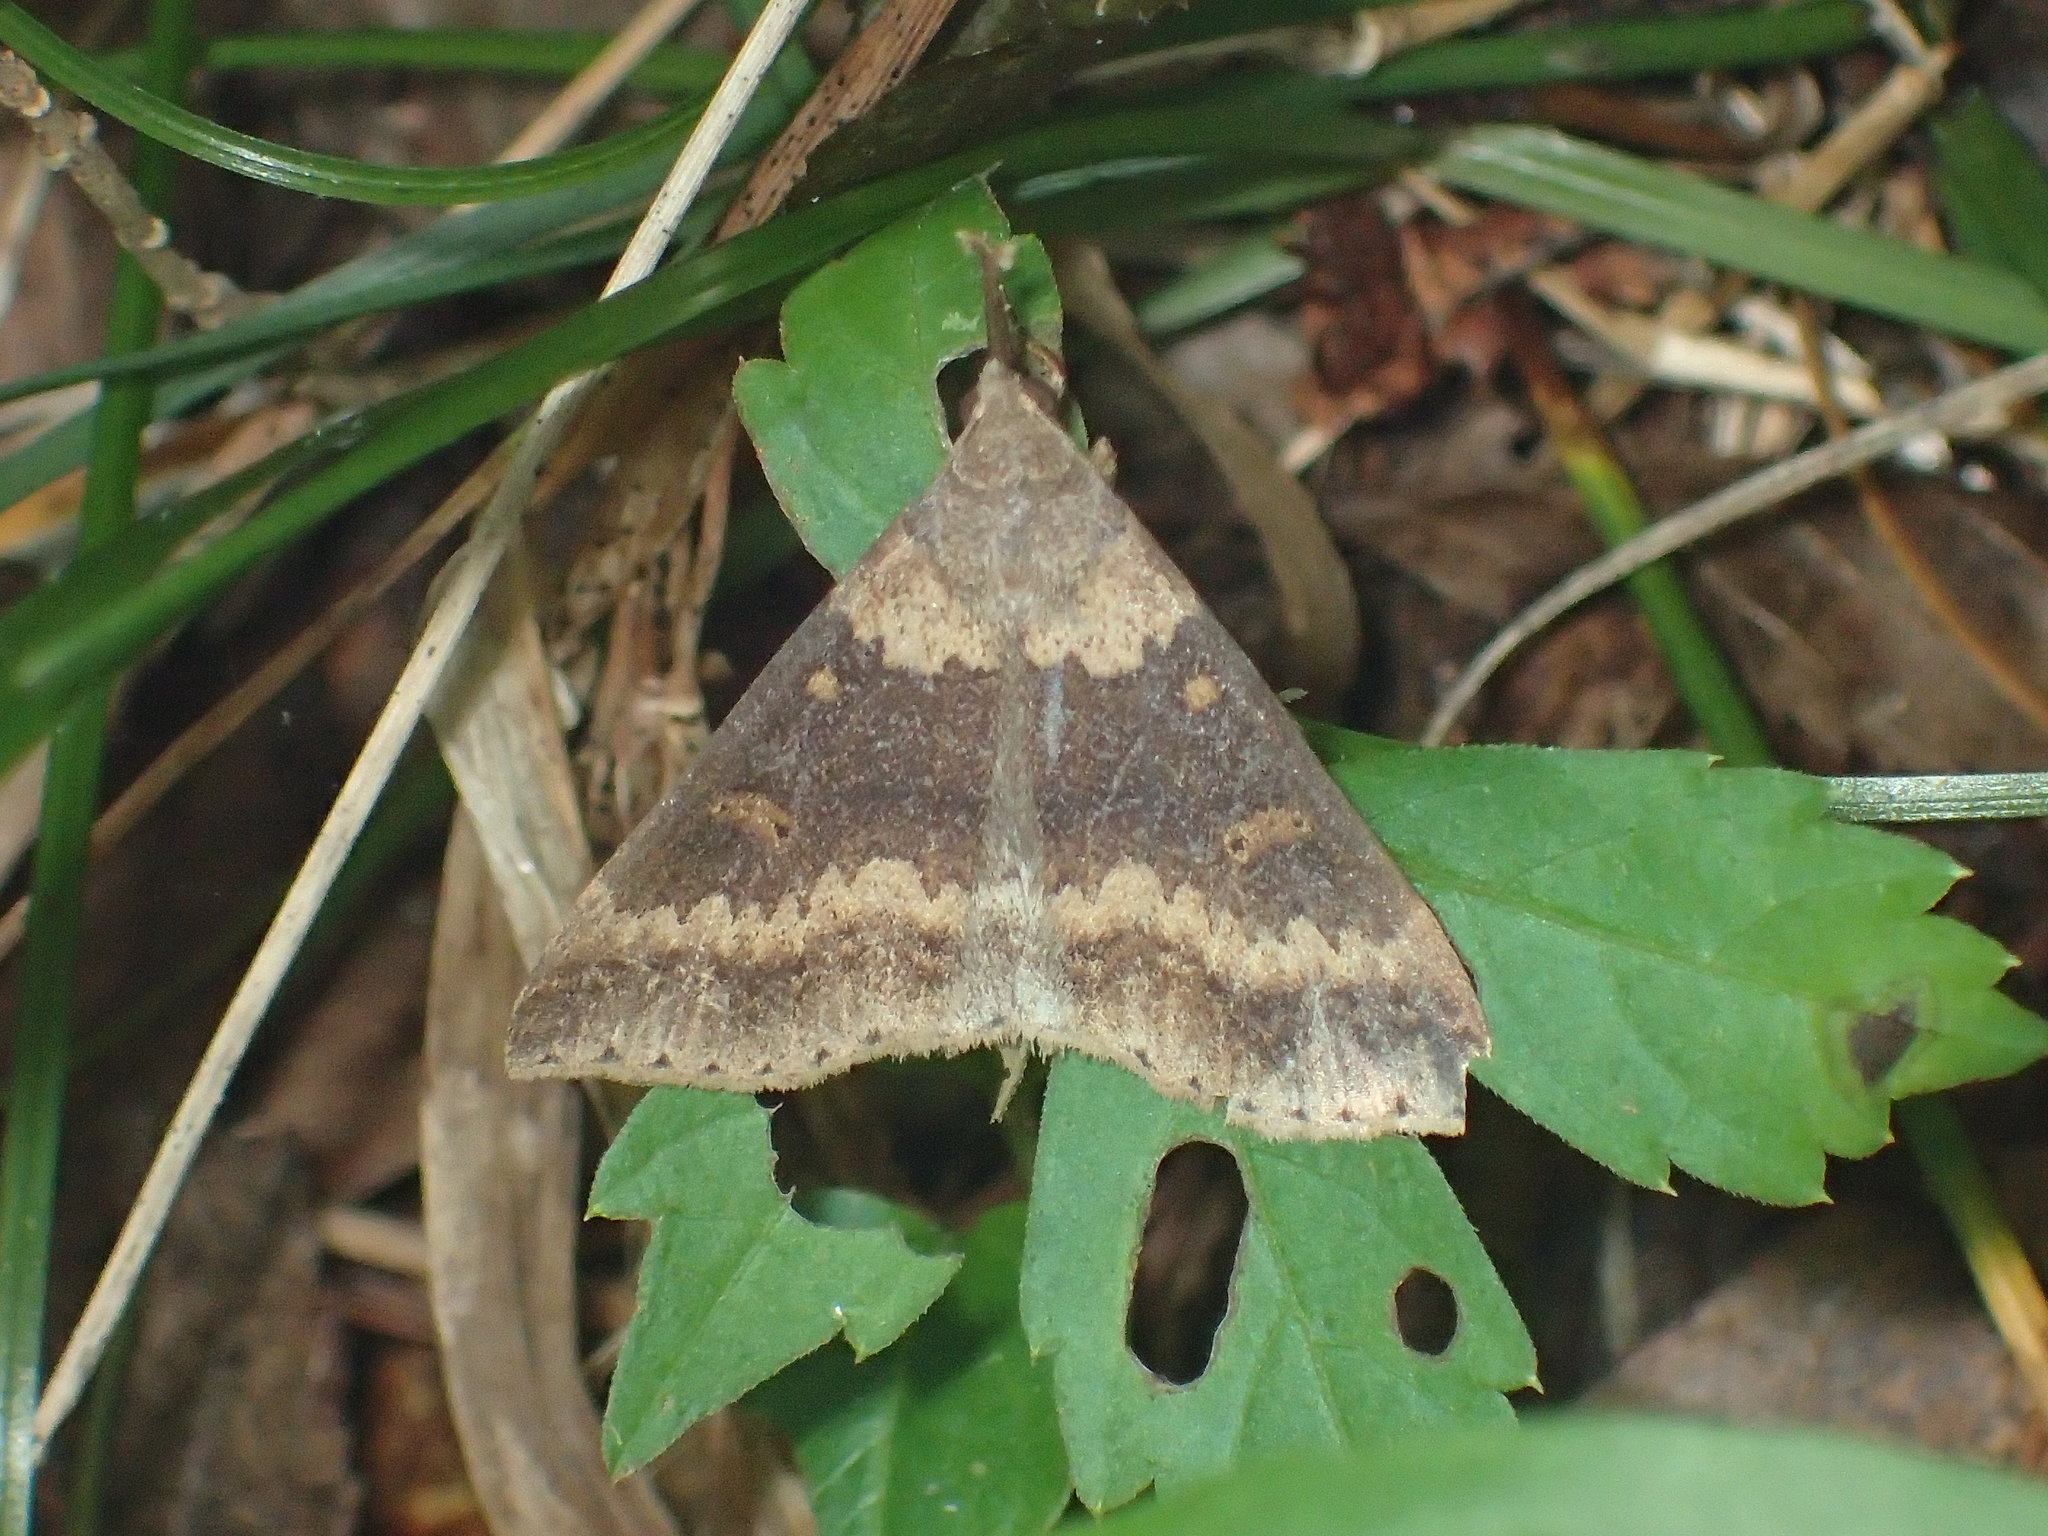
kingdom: Animalia
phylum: Arthropoda
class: Insecta
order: Lepidoptera
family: Erebidae
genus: Renia
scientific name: Renia discoloralis
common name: Discolored renia moth
